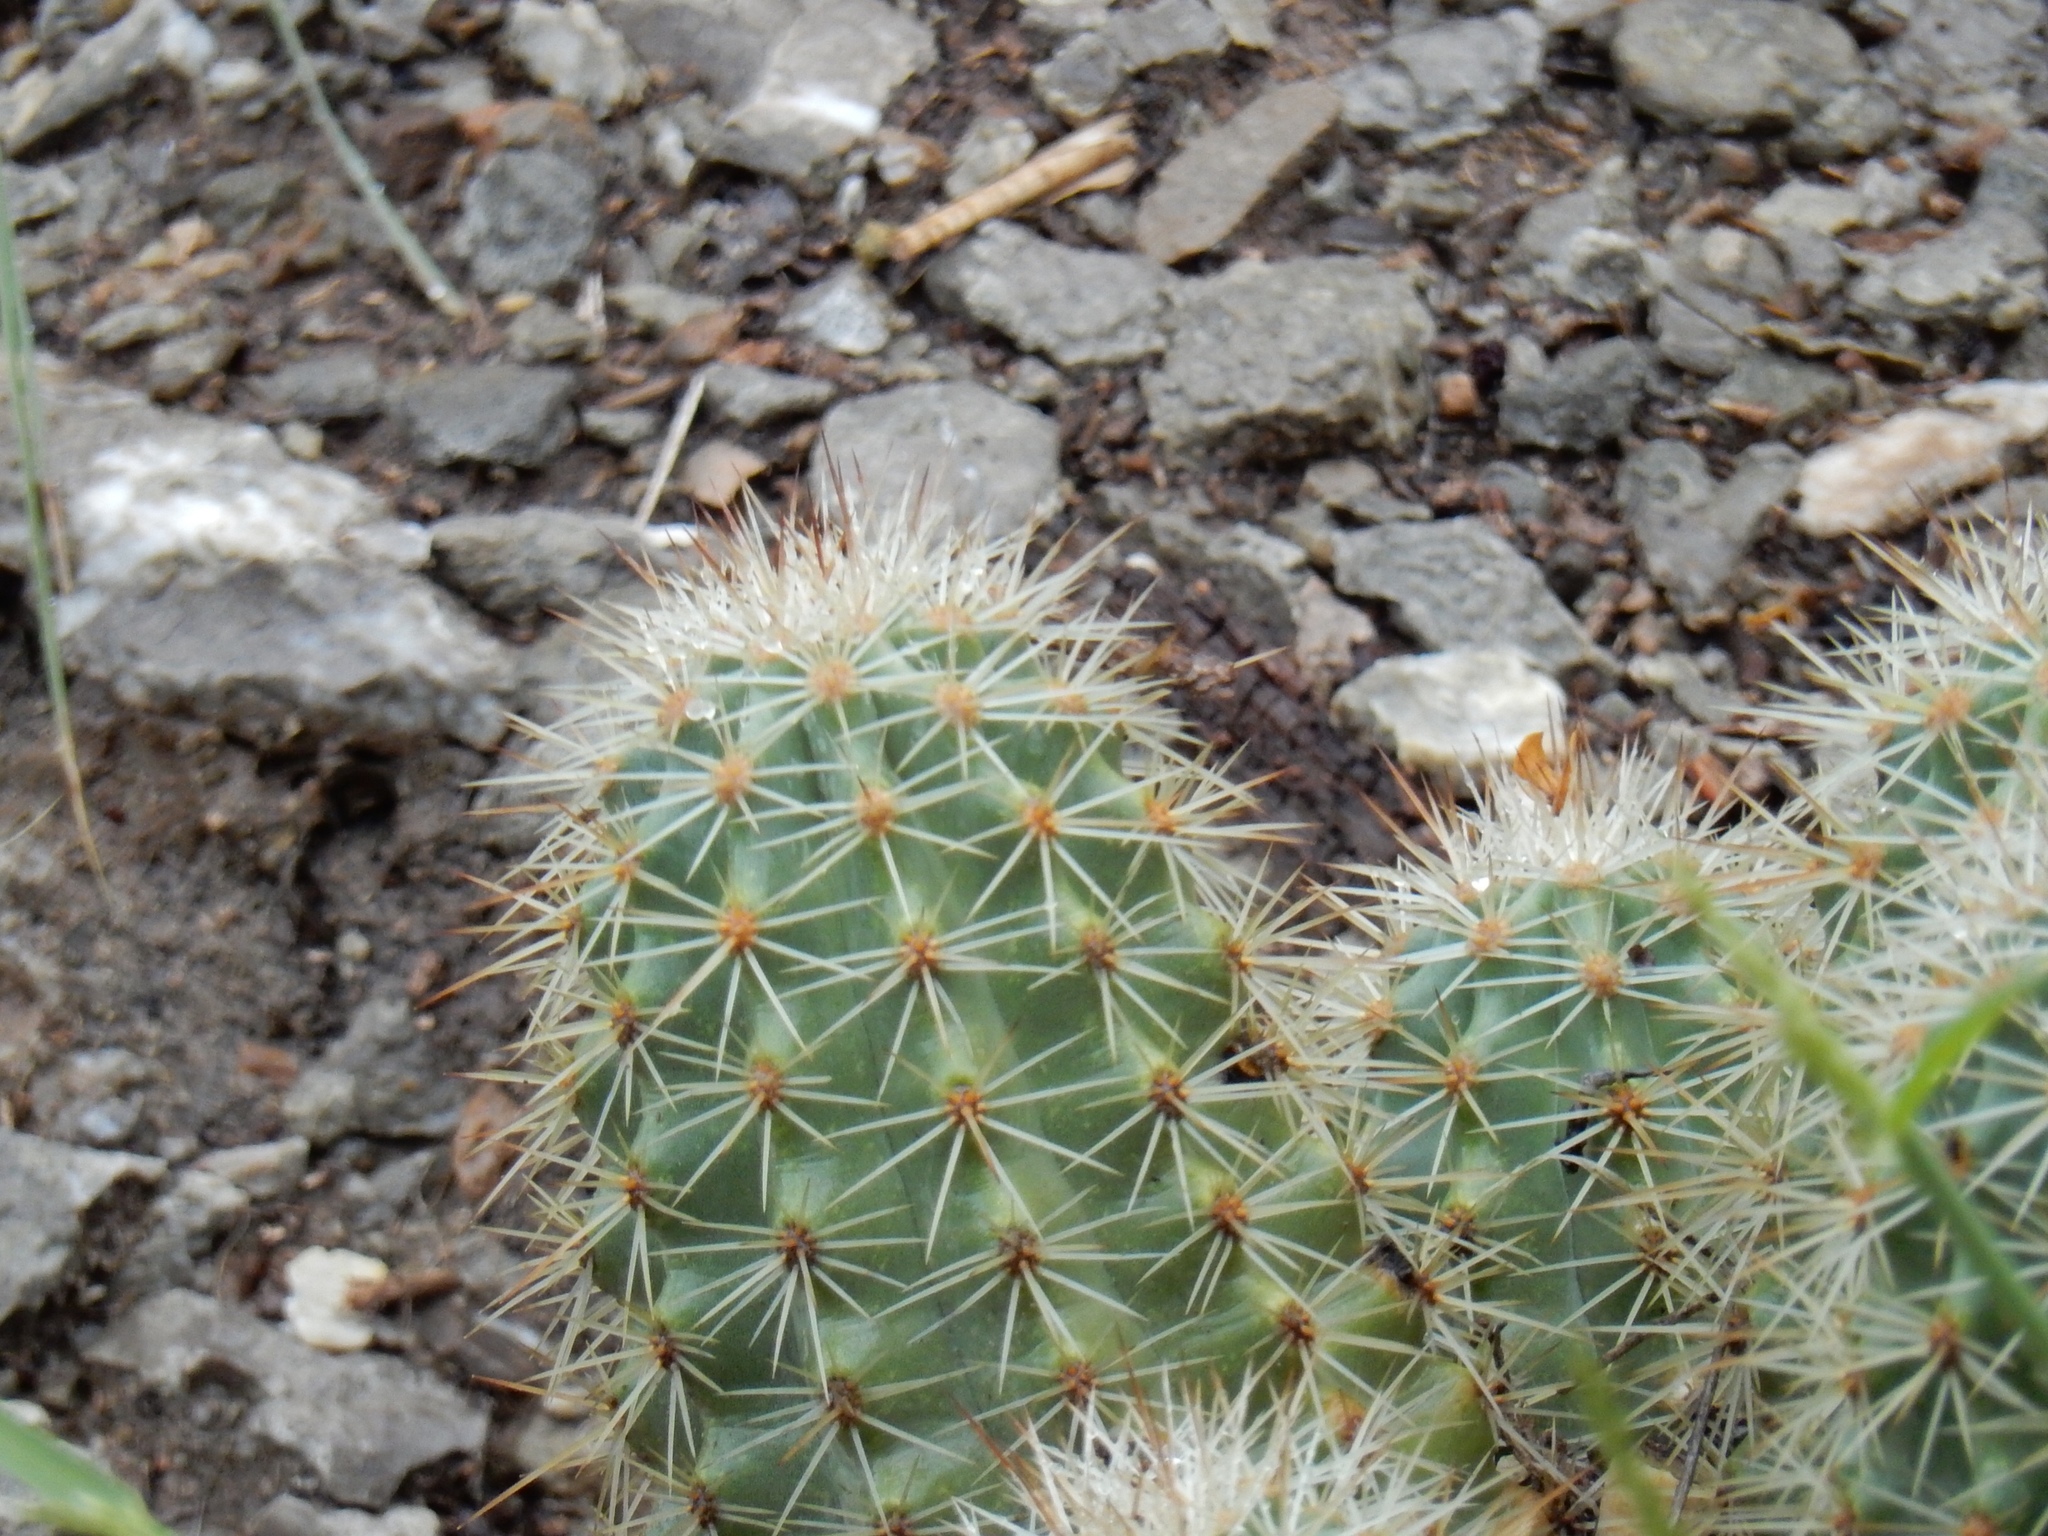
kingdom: Plantae
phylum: Tracheophyta
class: Magnoliopsida
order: Caryophyllales
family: Cactaceae
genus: Echinocereus
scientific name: Echinocereus roetteri
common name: Lloyd's hedgehog cactus
